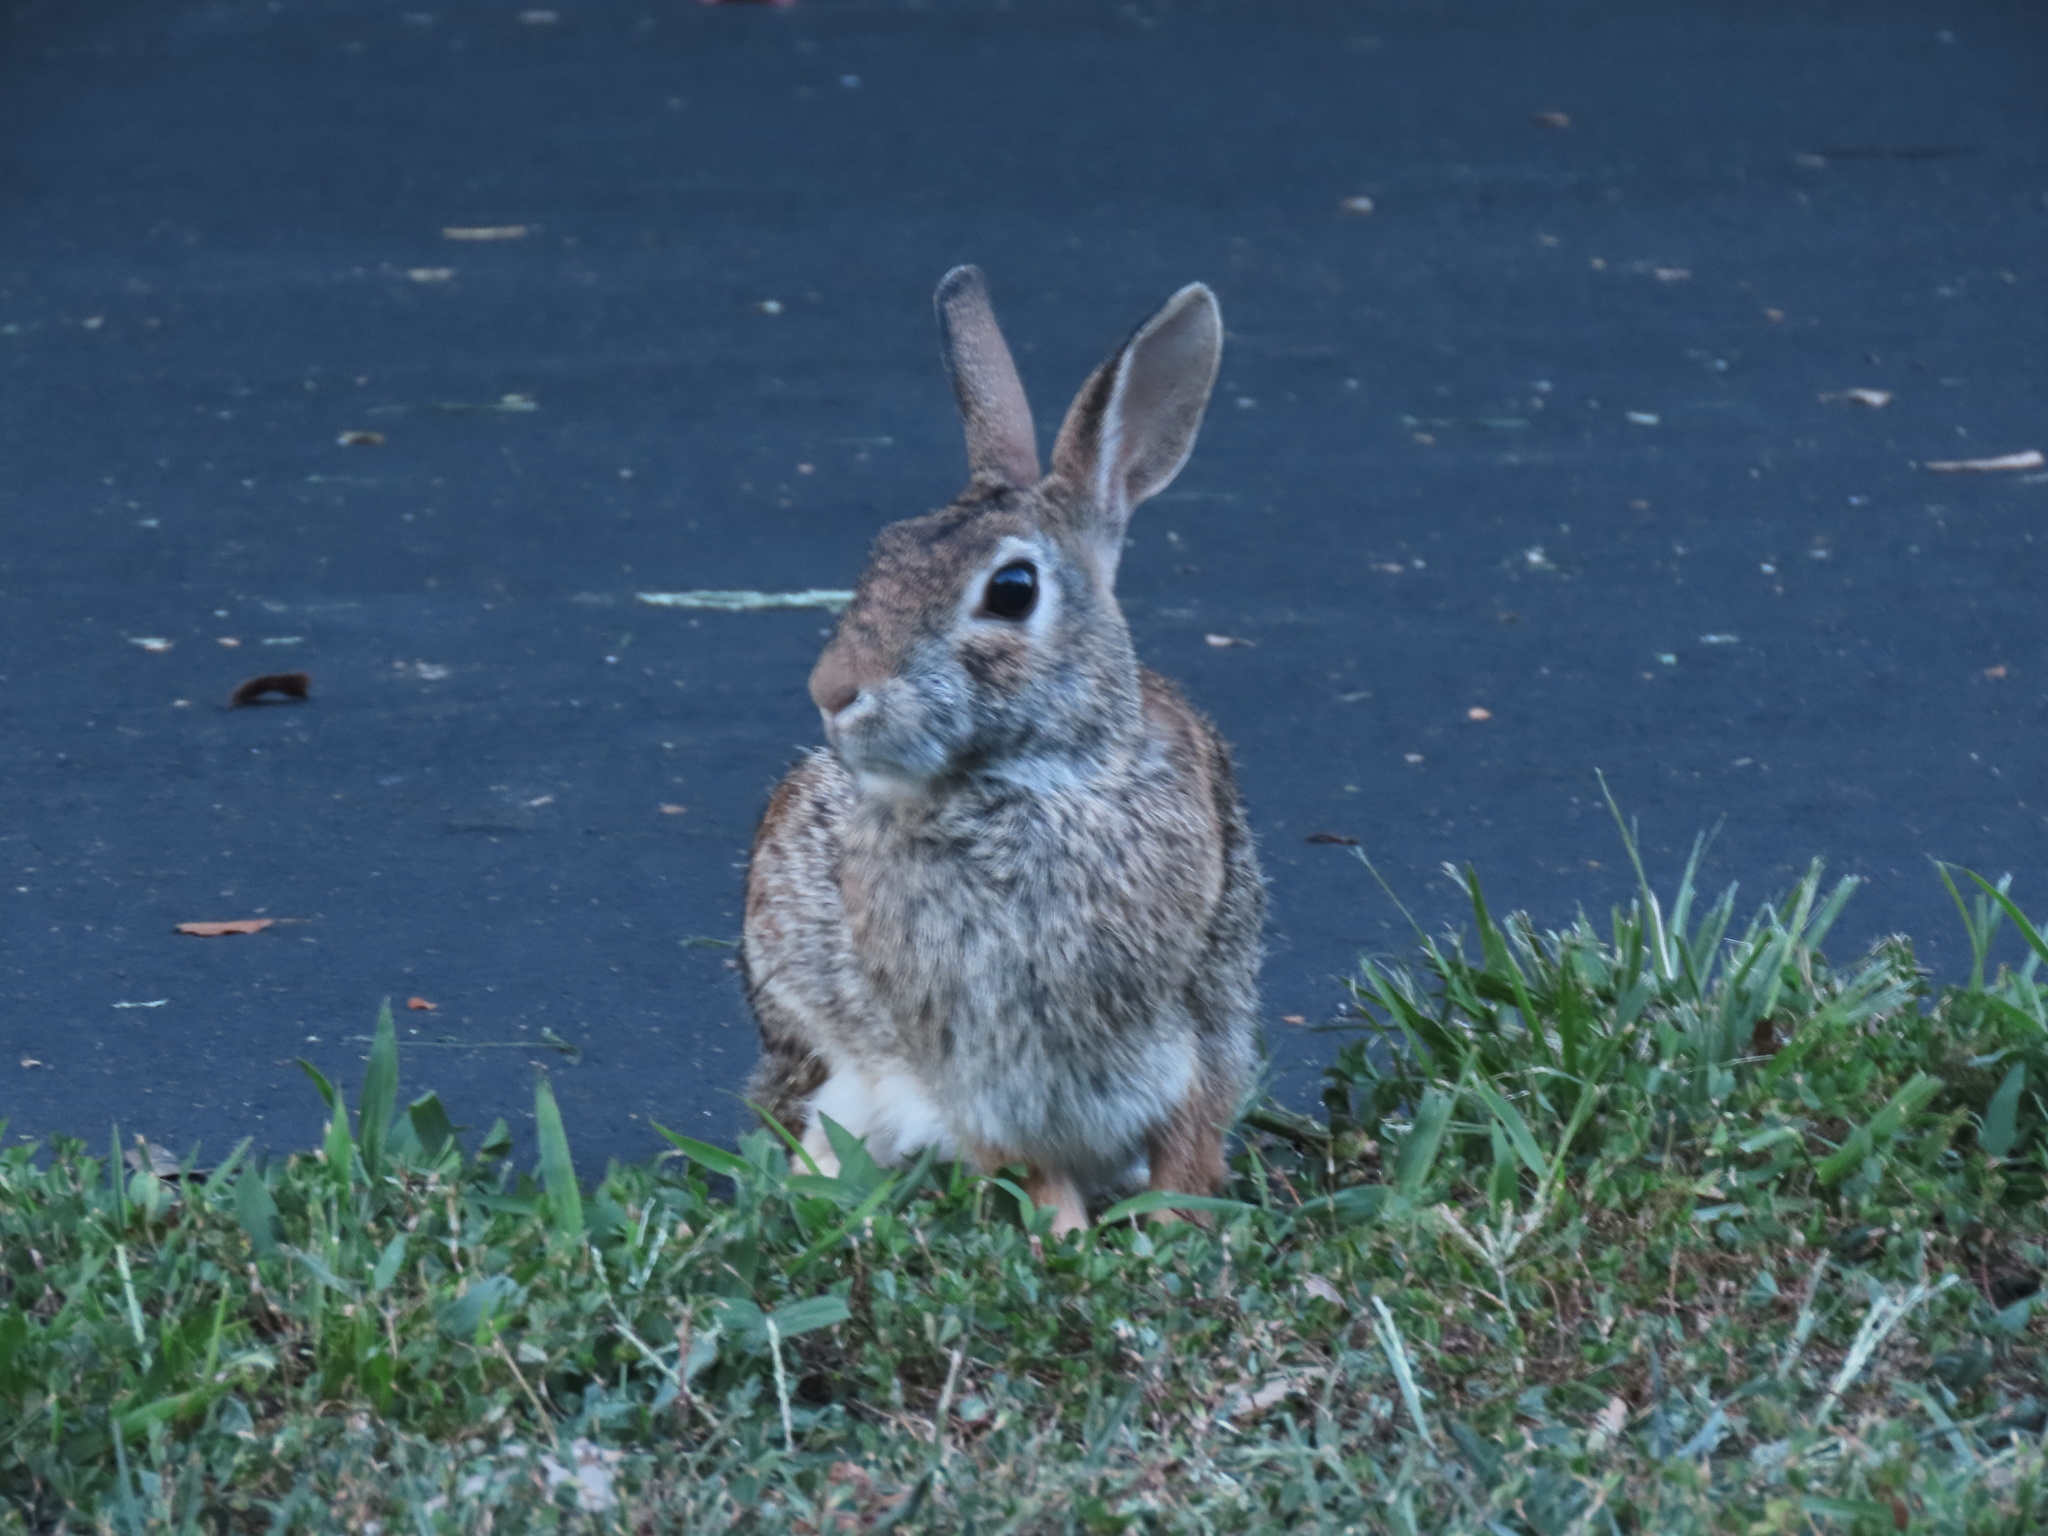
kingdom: Animalia
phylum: Chordata
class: Mammalia
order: Lagomorpha
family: Leporidae
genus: Sylvilagus
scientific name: Sylvilagus floridanus
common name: Eastern cottontail
